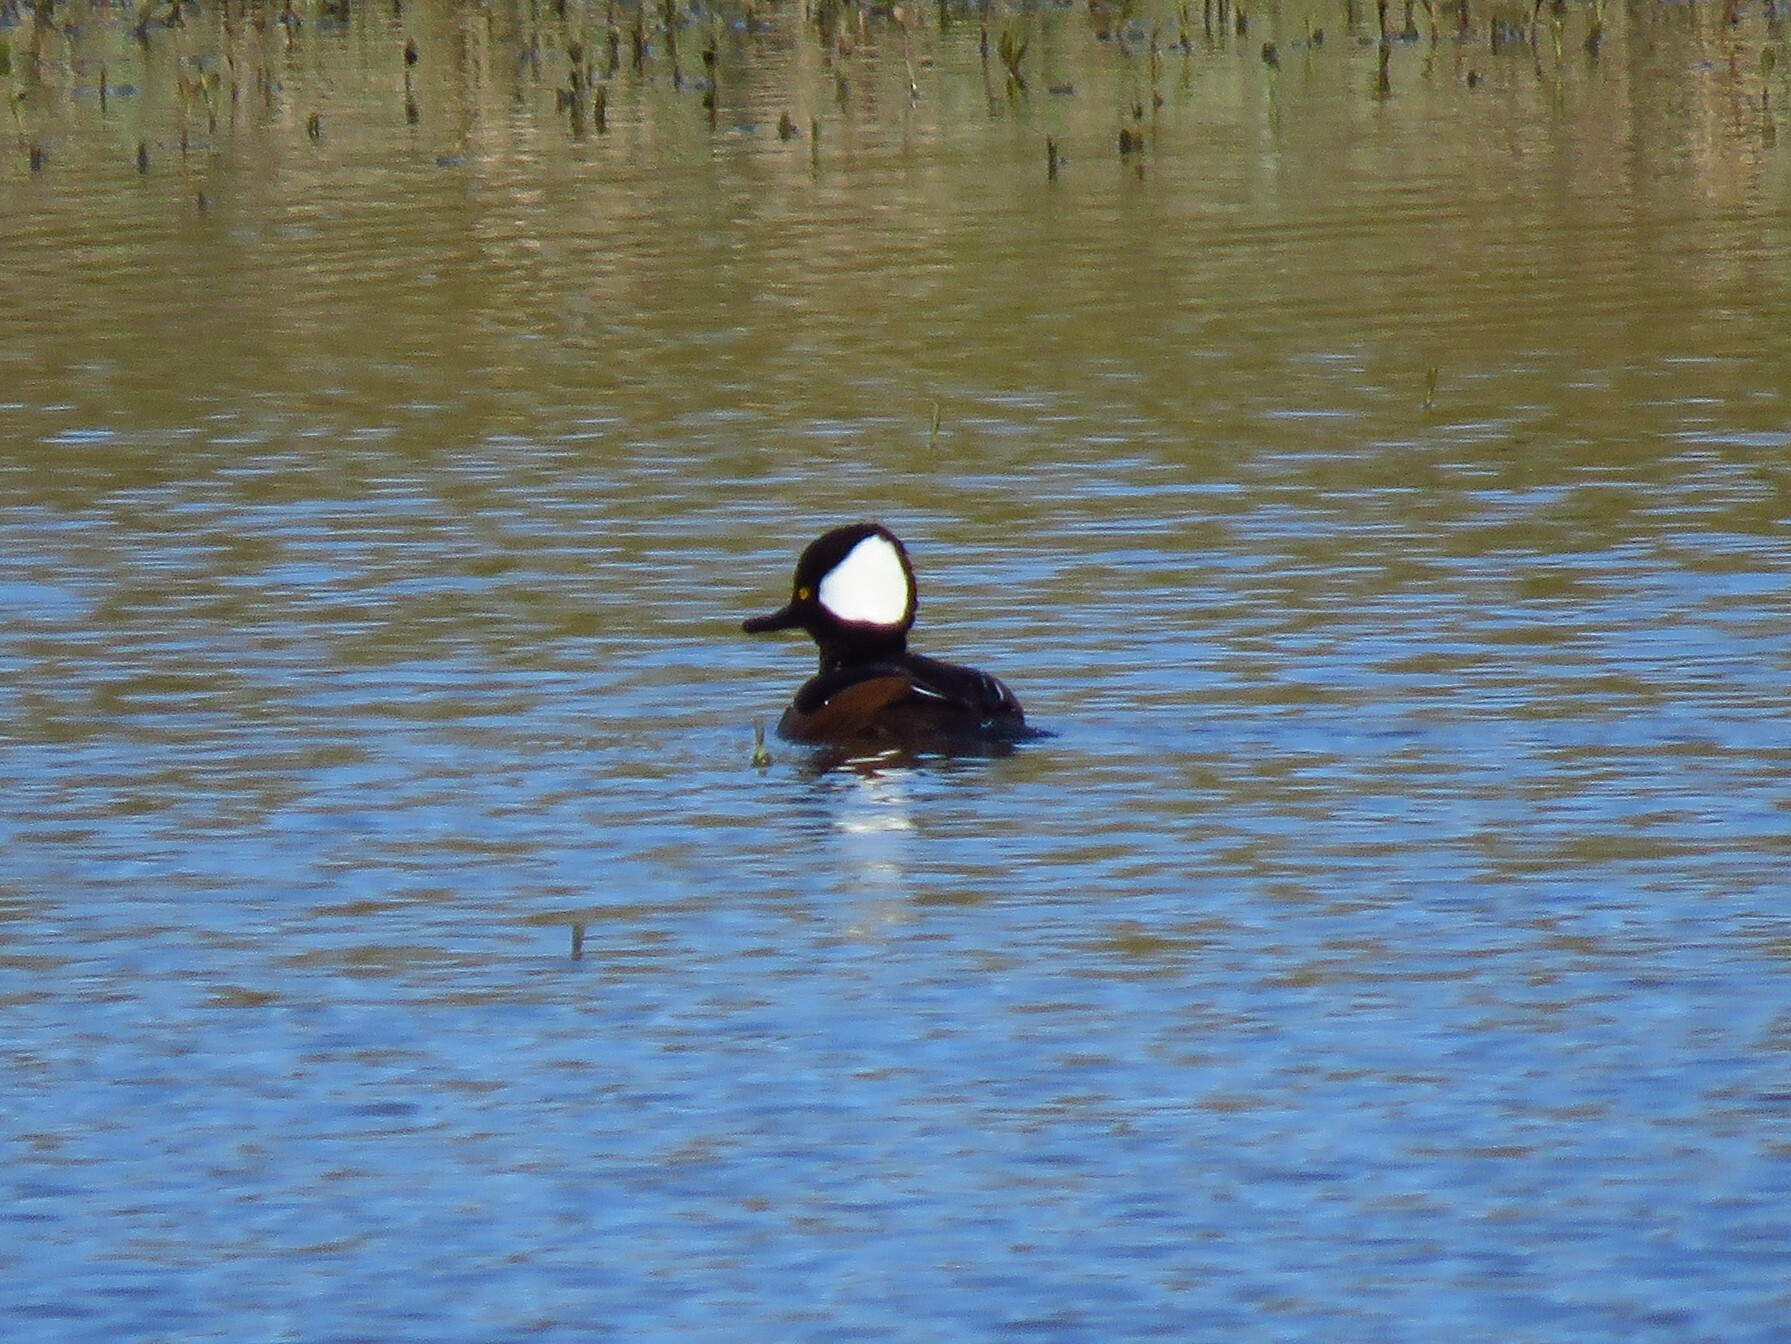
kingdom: Animalia
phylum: Chordata
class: Aves
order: Anseriformes
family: Anatidae
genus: Lophodytes
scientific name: Lophodytes cucullatus
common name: Hooded merganser
